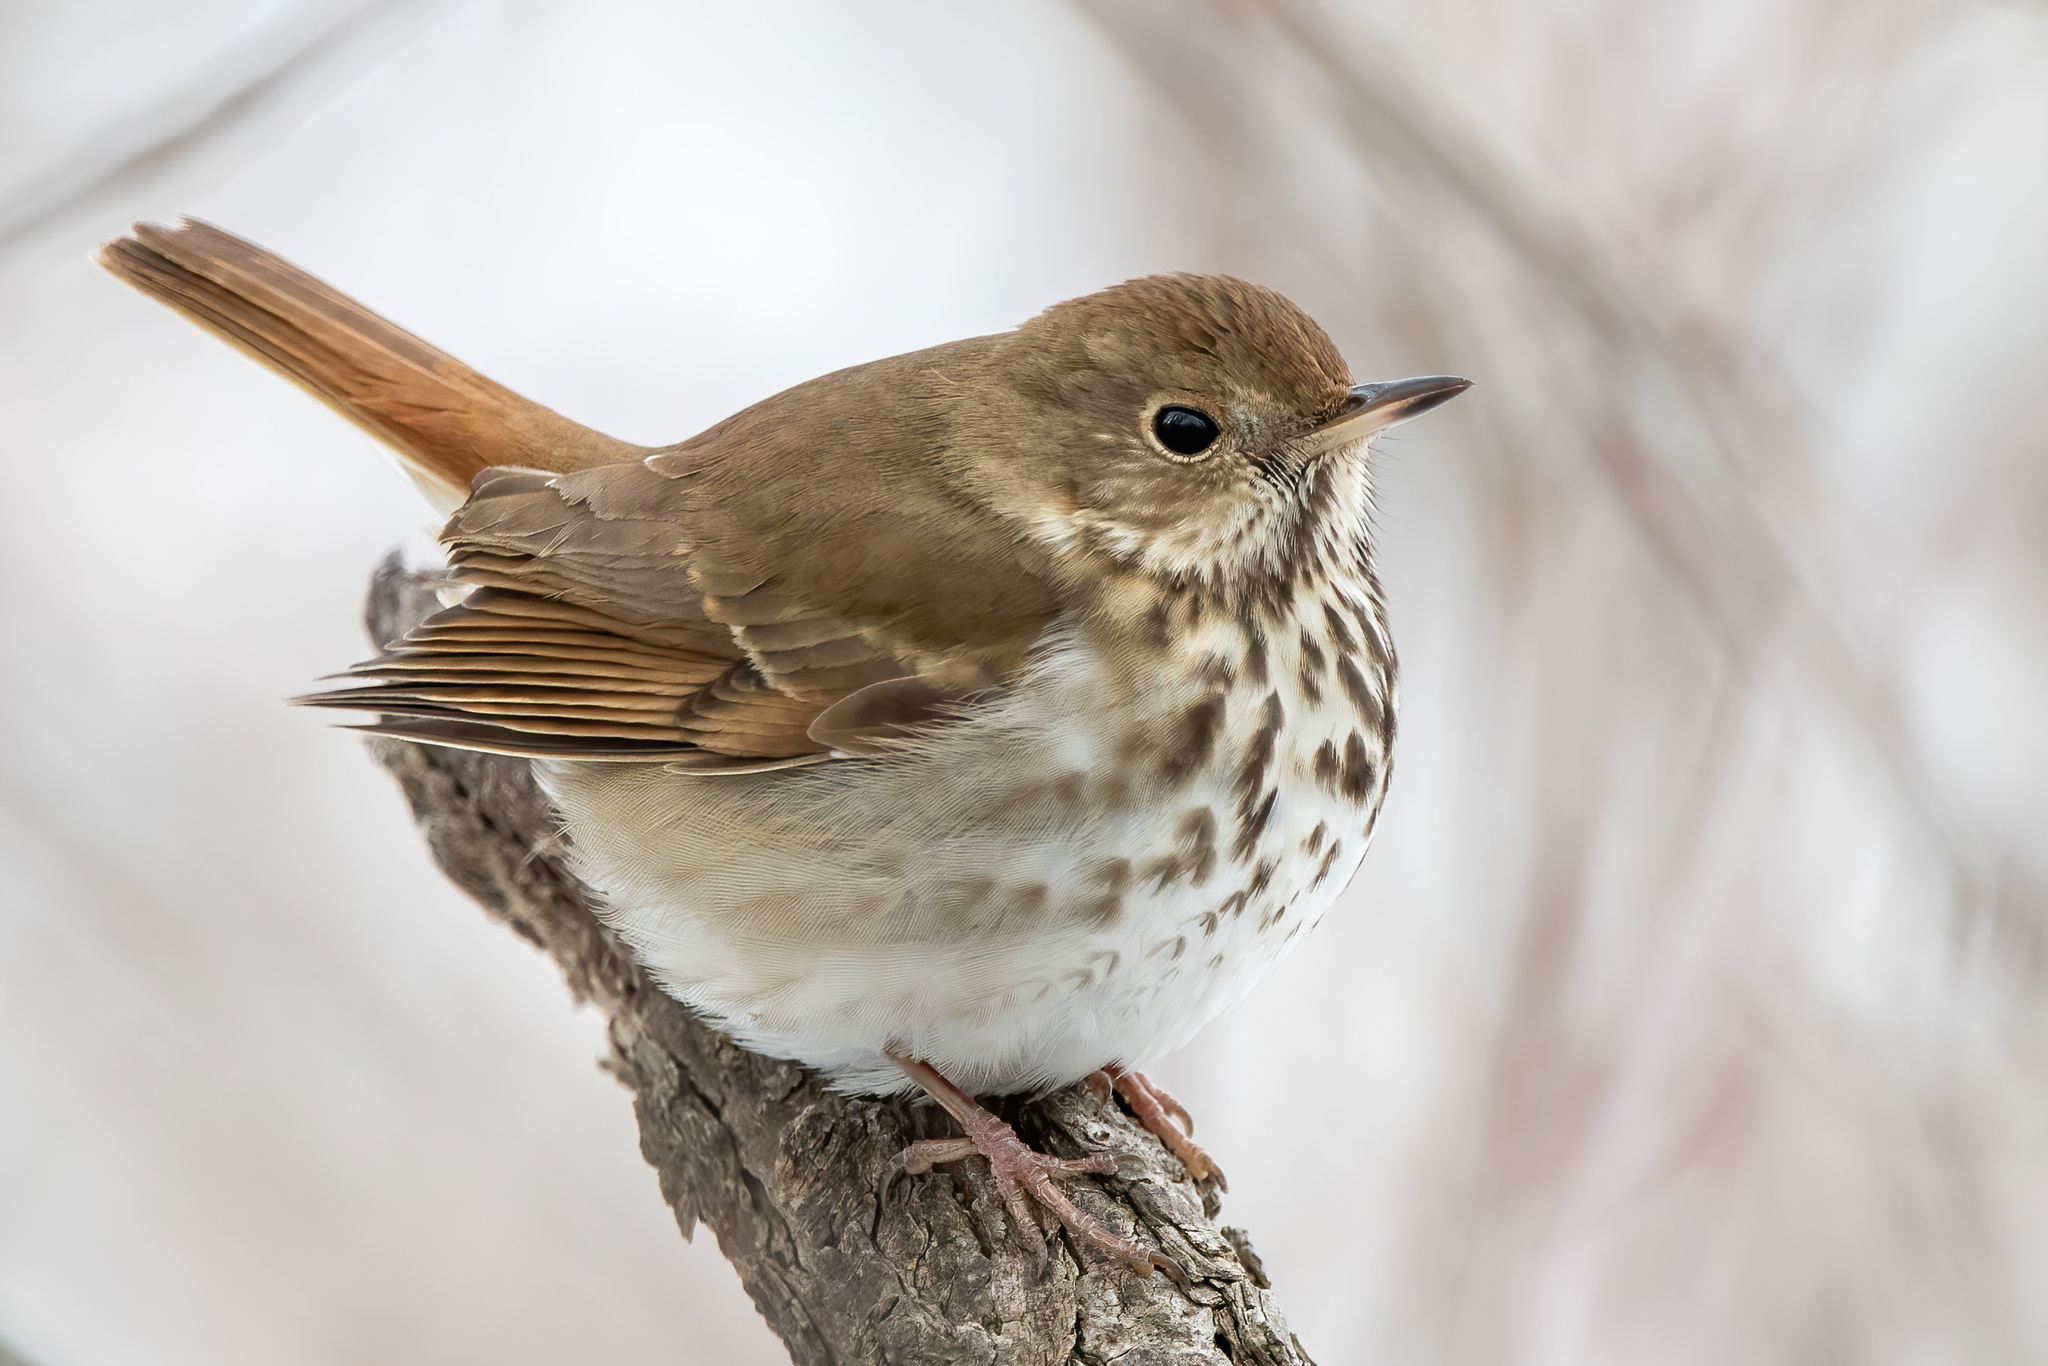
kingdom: Animalia
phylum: Chordata
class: Aves
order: Passeriformes
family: Turdidae
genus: Catharus
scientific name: Catharus guttatus
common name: Hermit thrush
